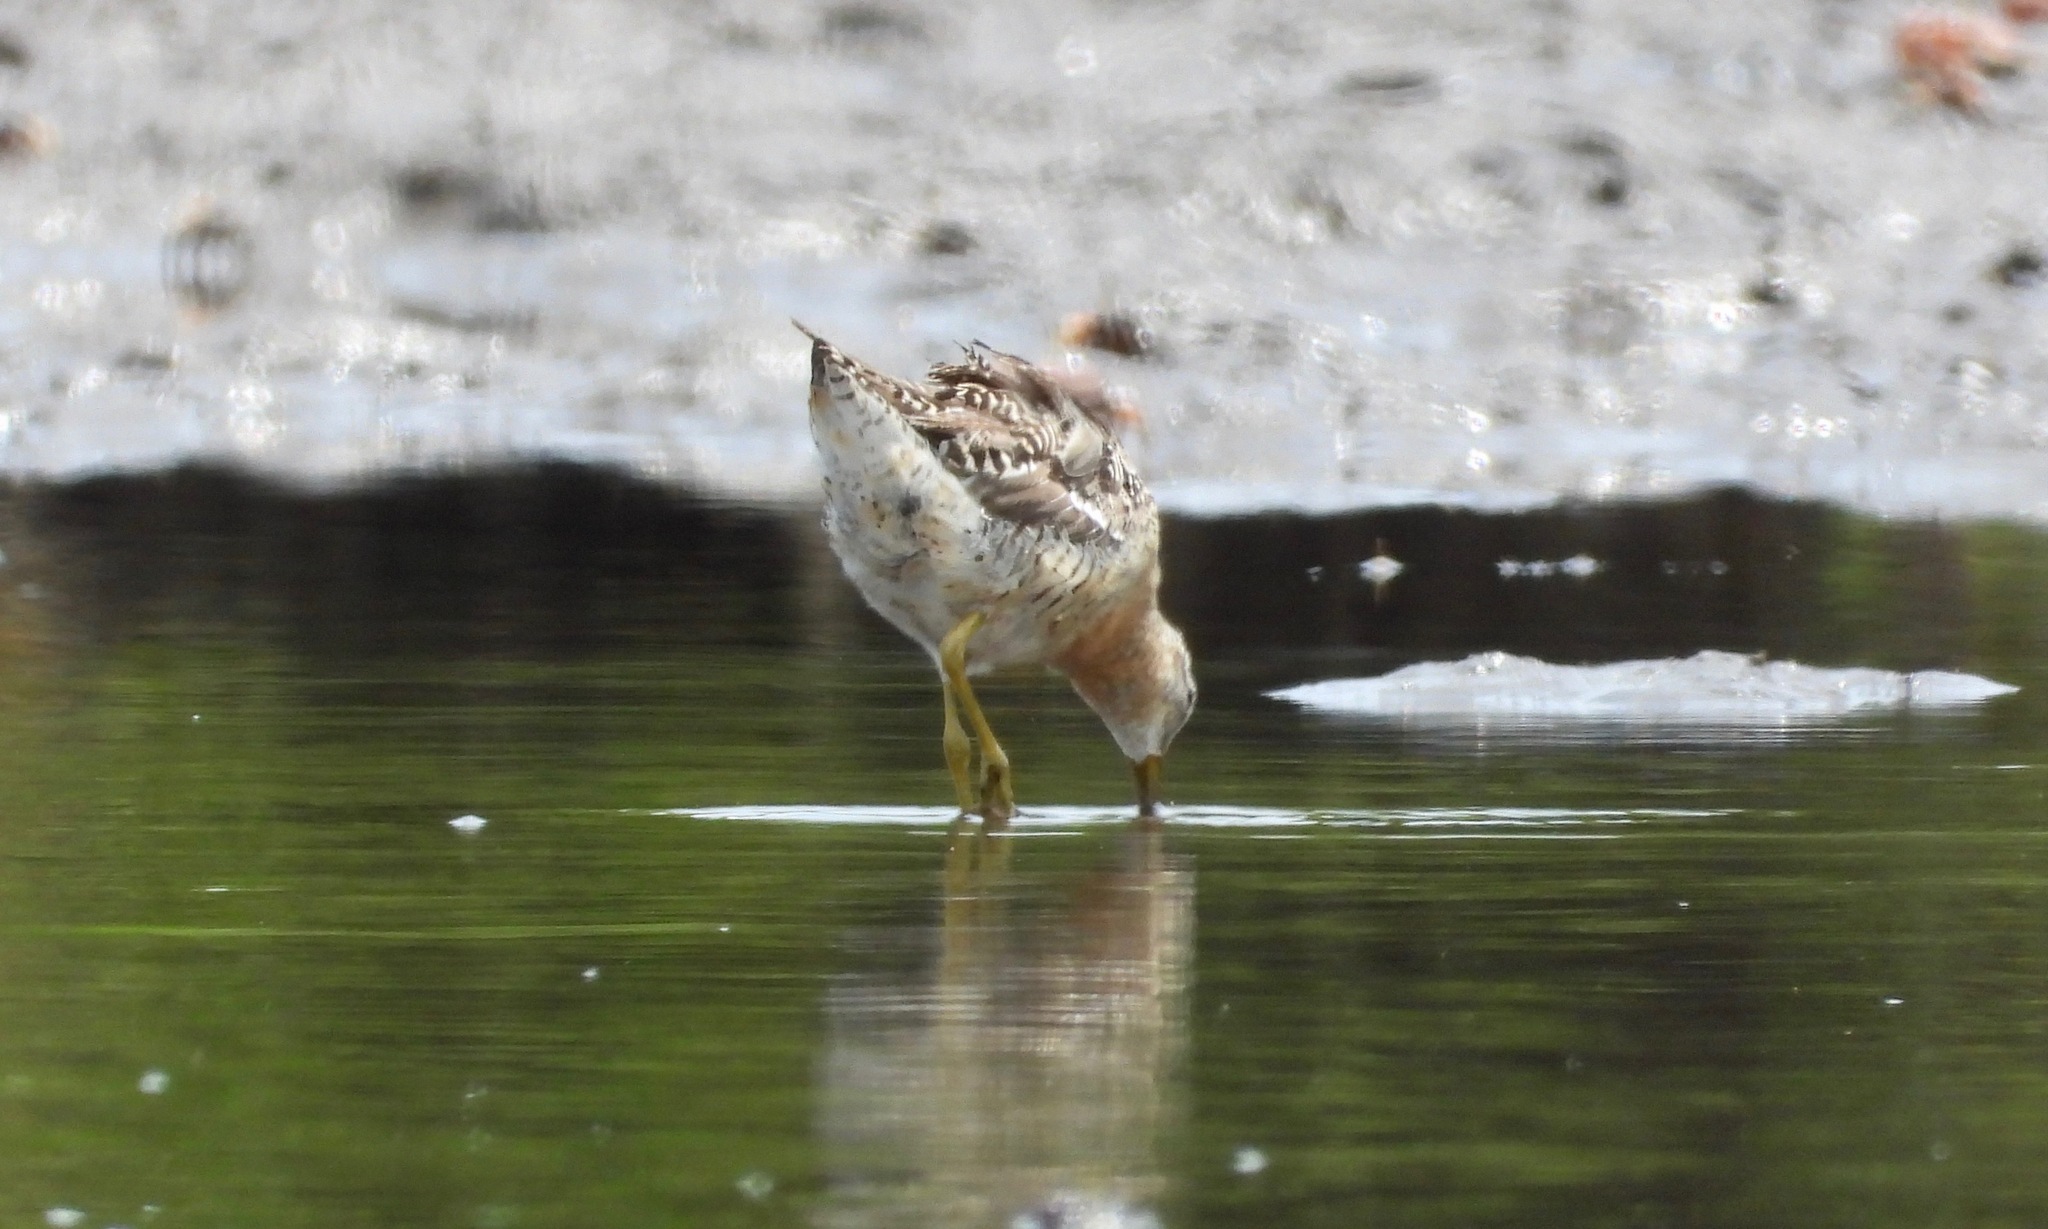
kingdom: Animalia
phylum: Chordata
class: Aves
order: Charadriiformes
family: Scolopacidae
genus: Limnodromus
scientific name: Limnodromus griseus
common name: Short-billed dowitcher
